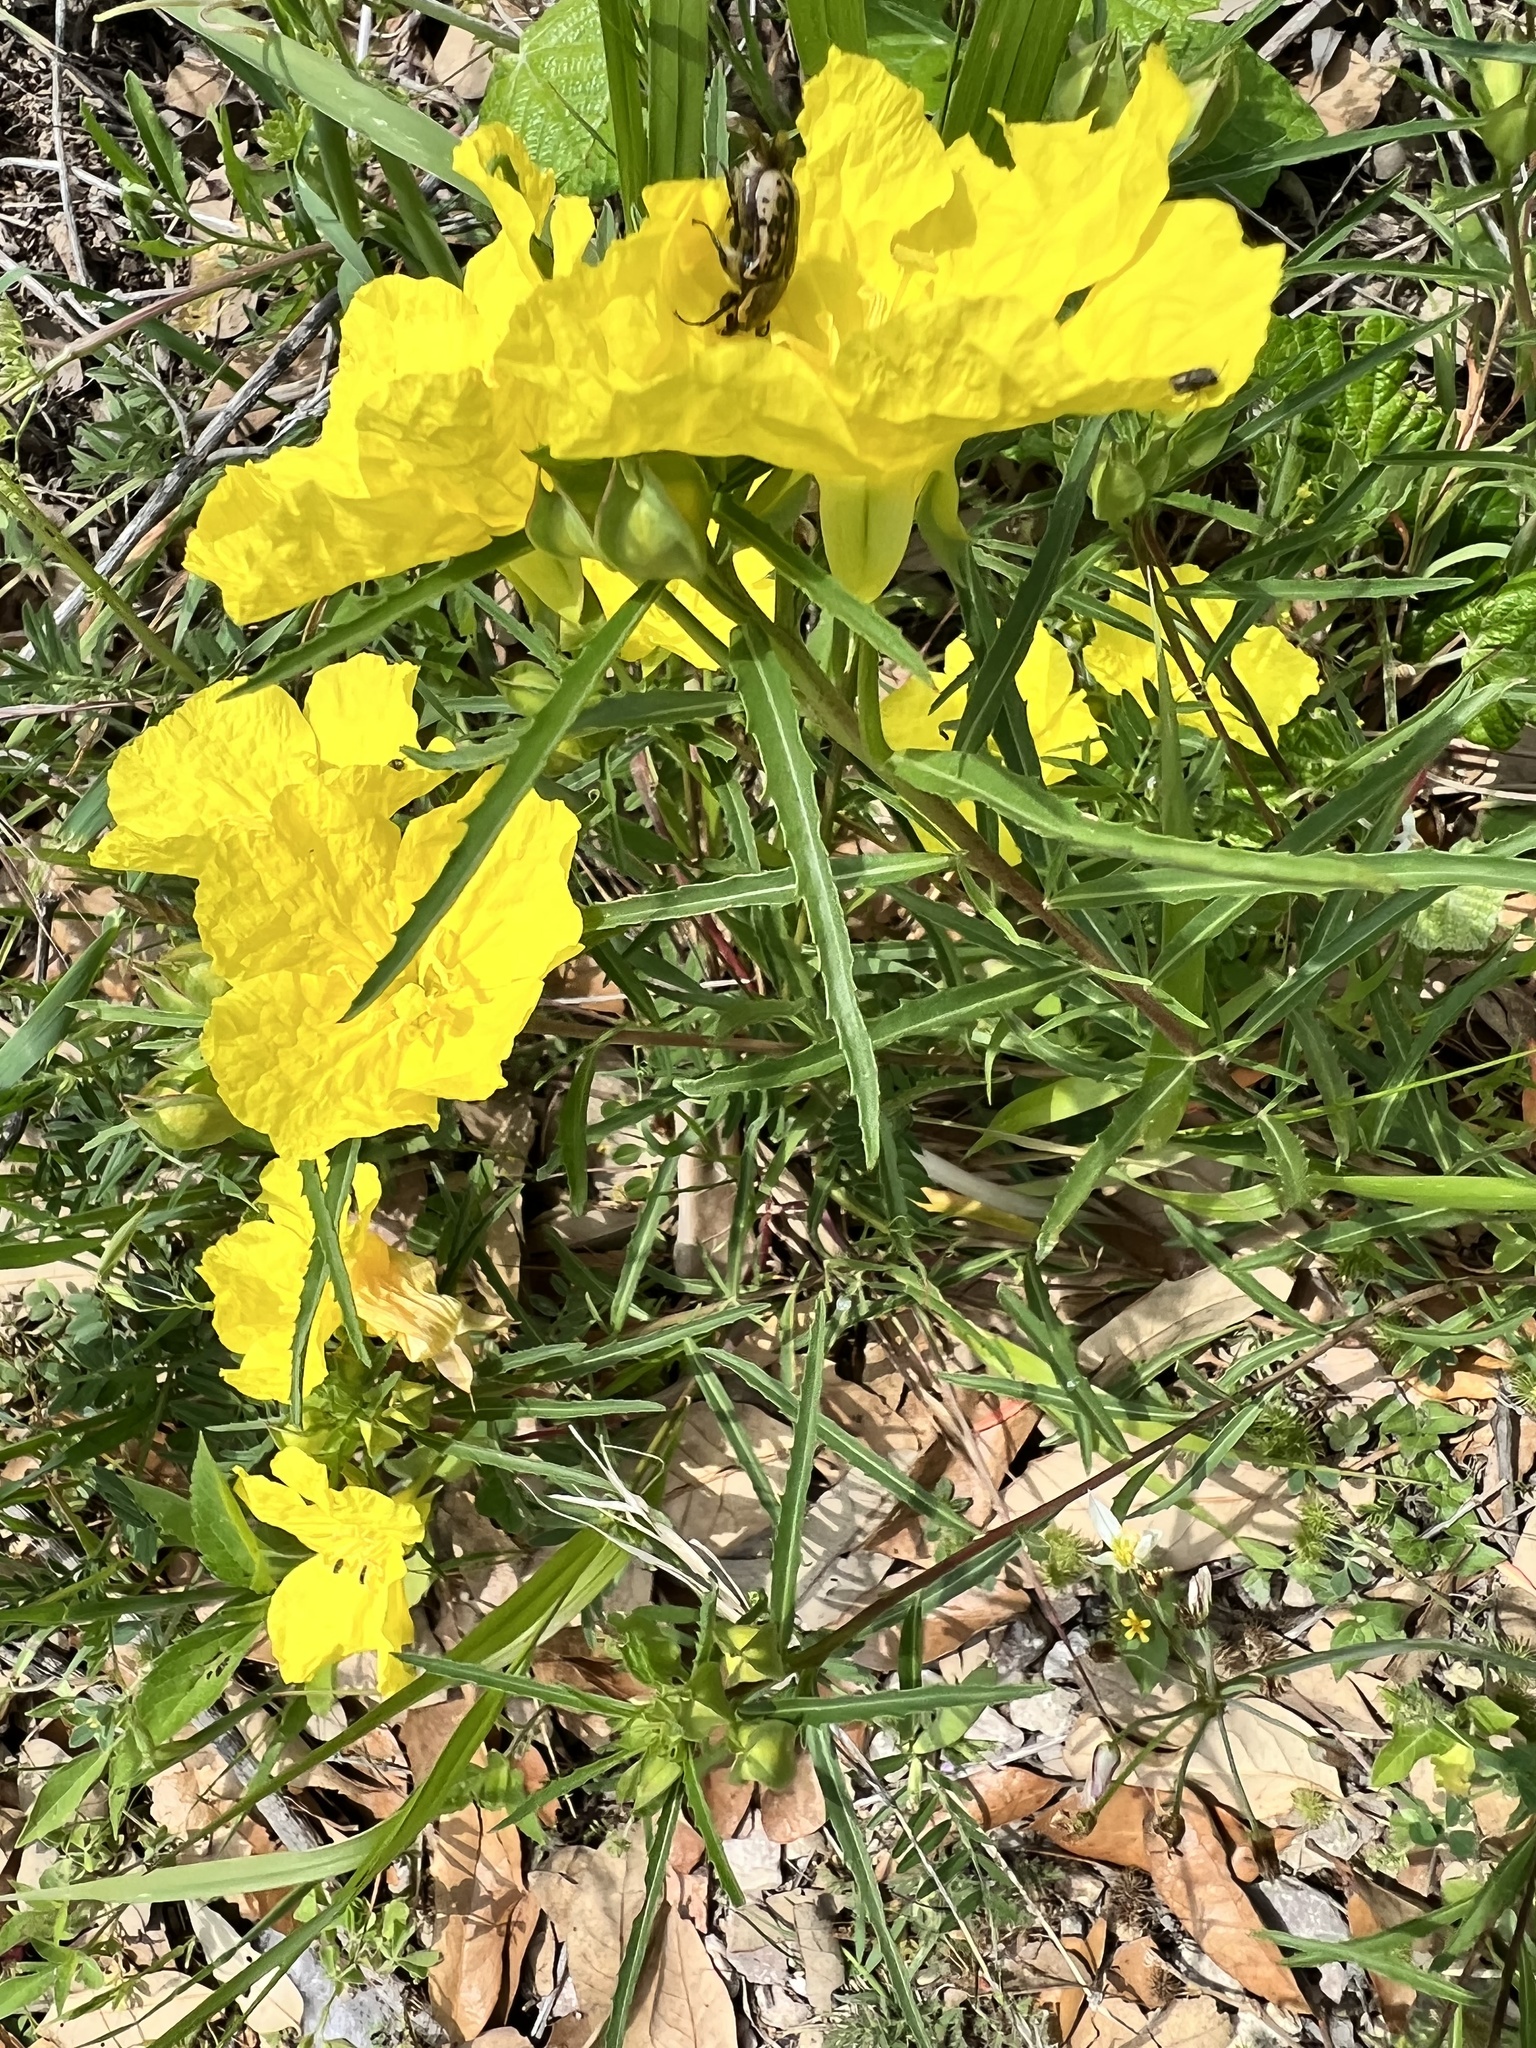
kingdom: Plantae
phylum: Tracheophyta
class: Magnoliopsida
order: Myrtales
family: Onagraceae
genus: Oenothera
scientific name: Oenothera
